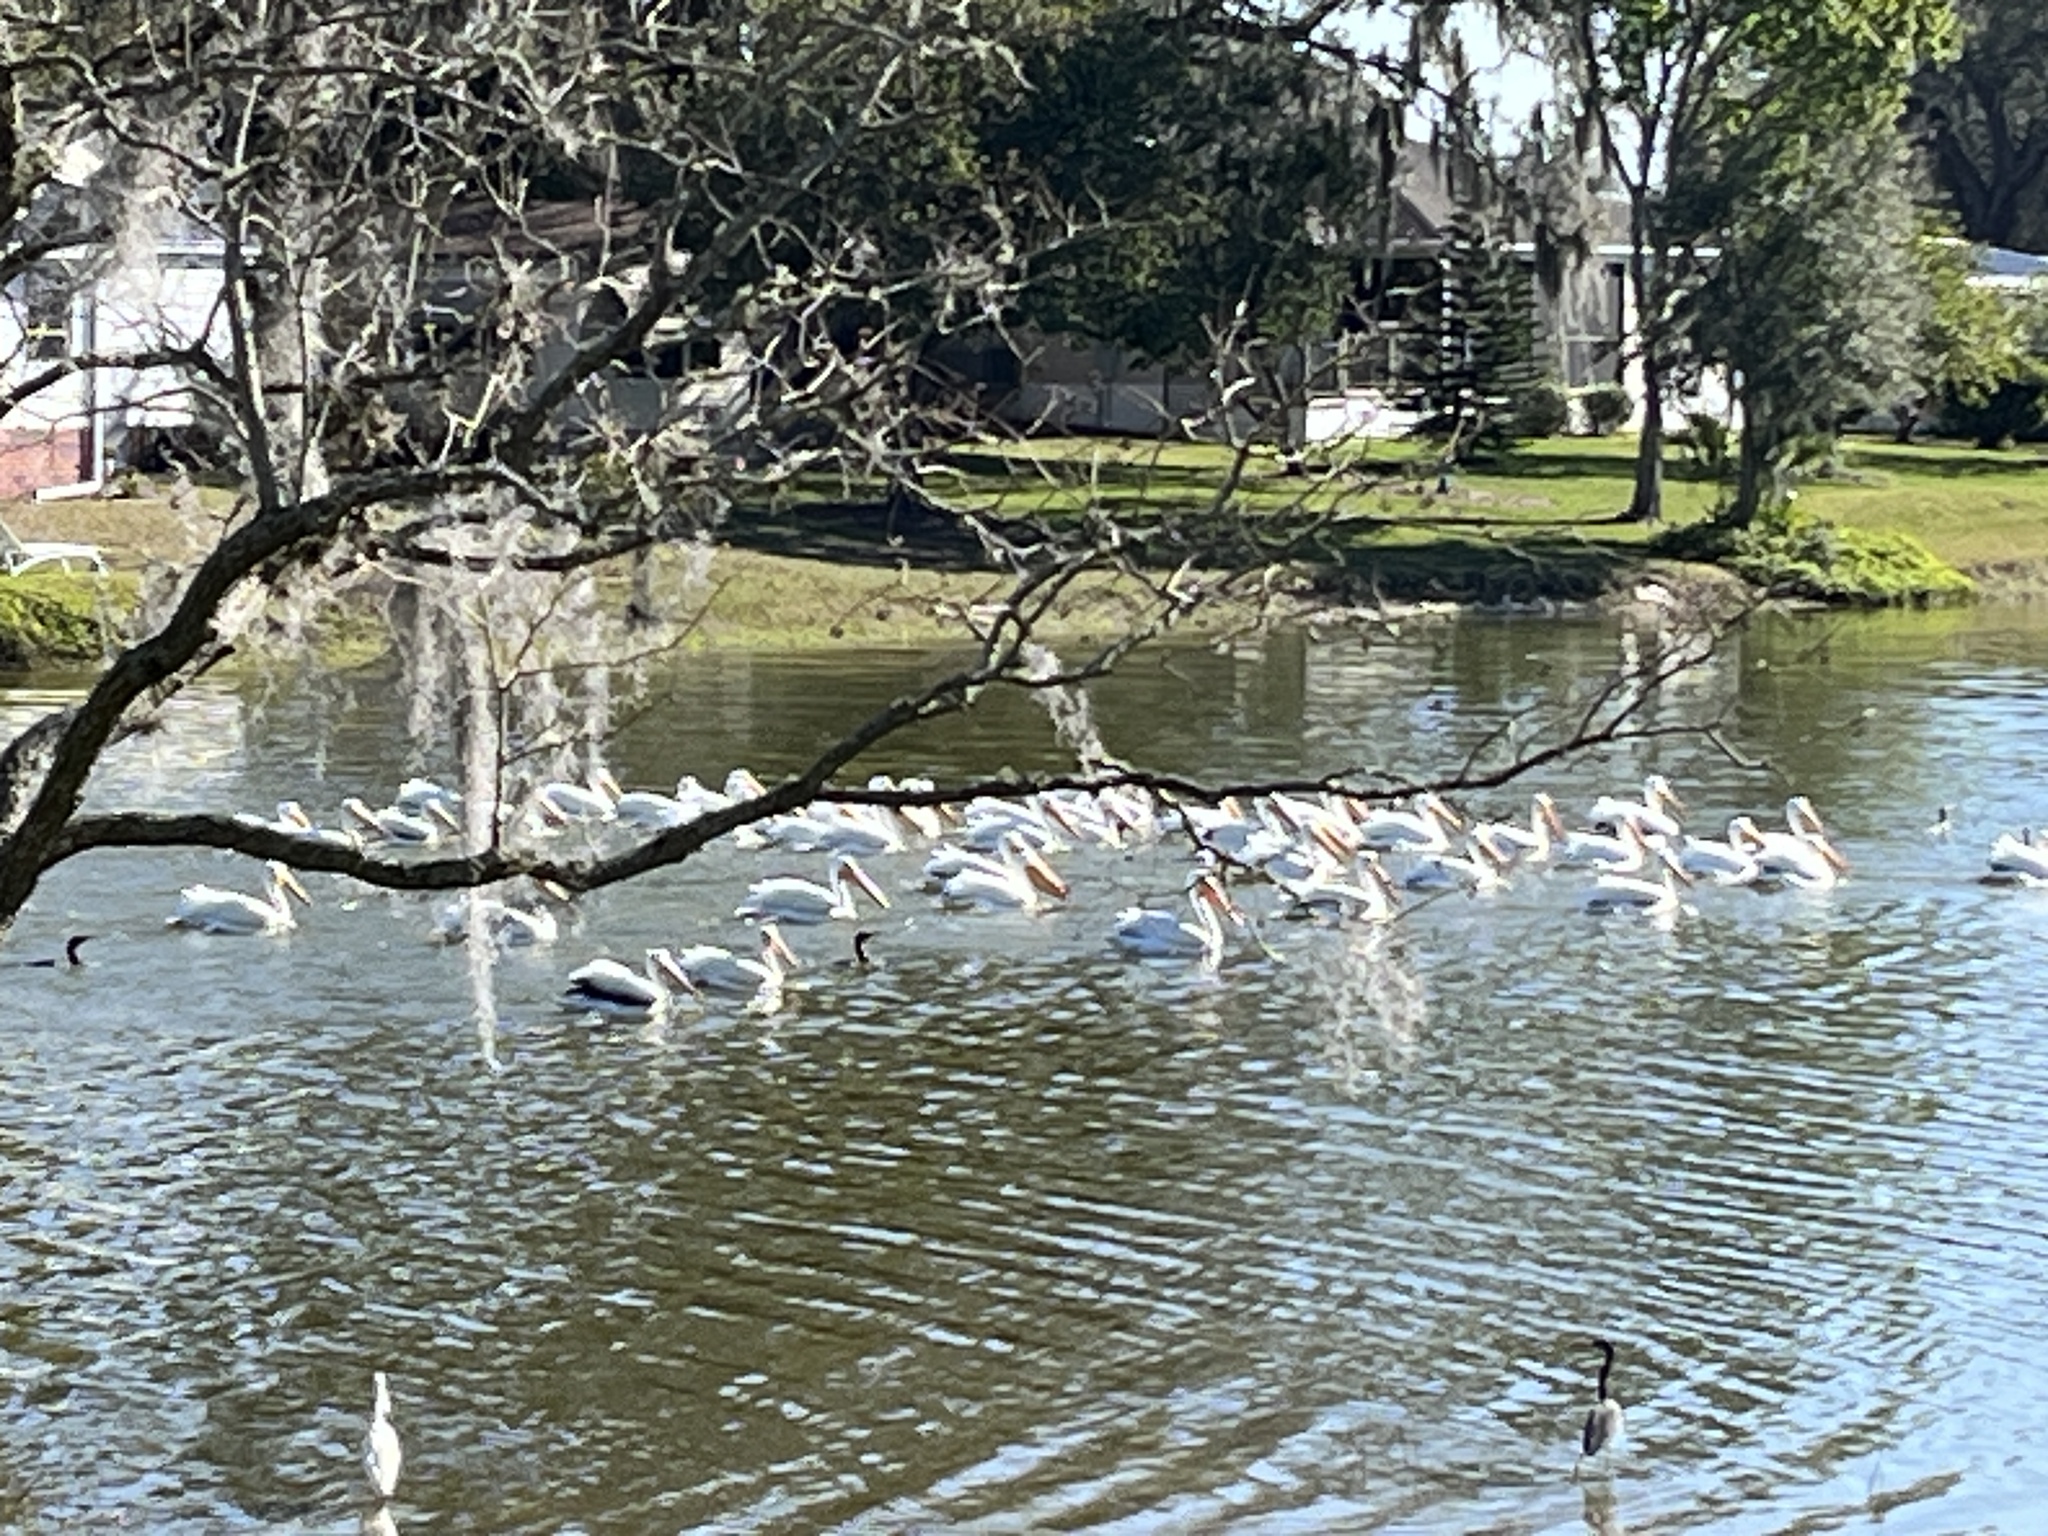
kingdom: Animalia
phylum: Chordata
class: Aves
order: Pelecaniformes
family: Pelecanidae
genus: Pelecanus
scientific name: Pelecanus erythrorhynchos
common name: American white pelican
